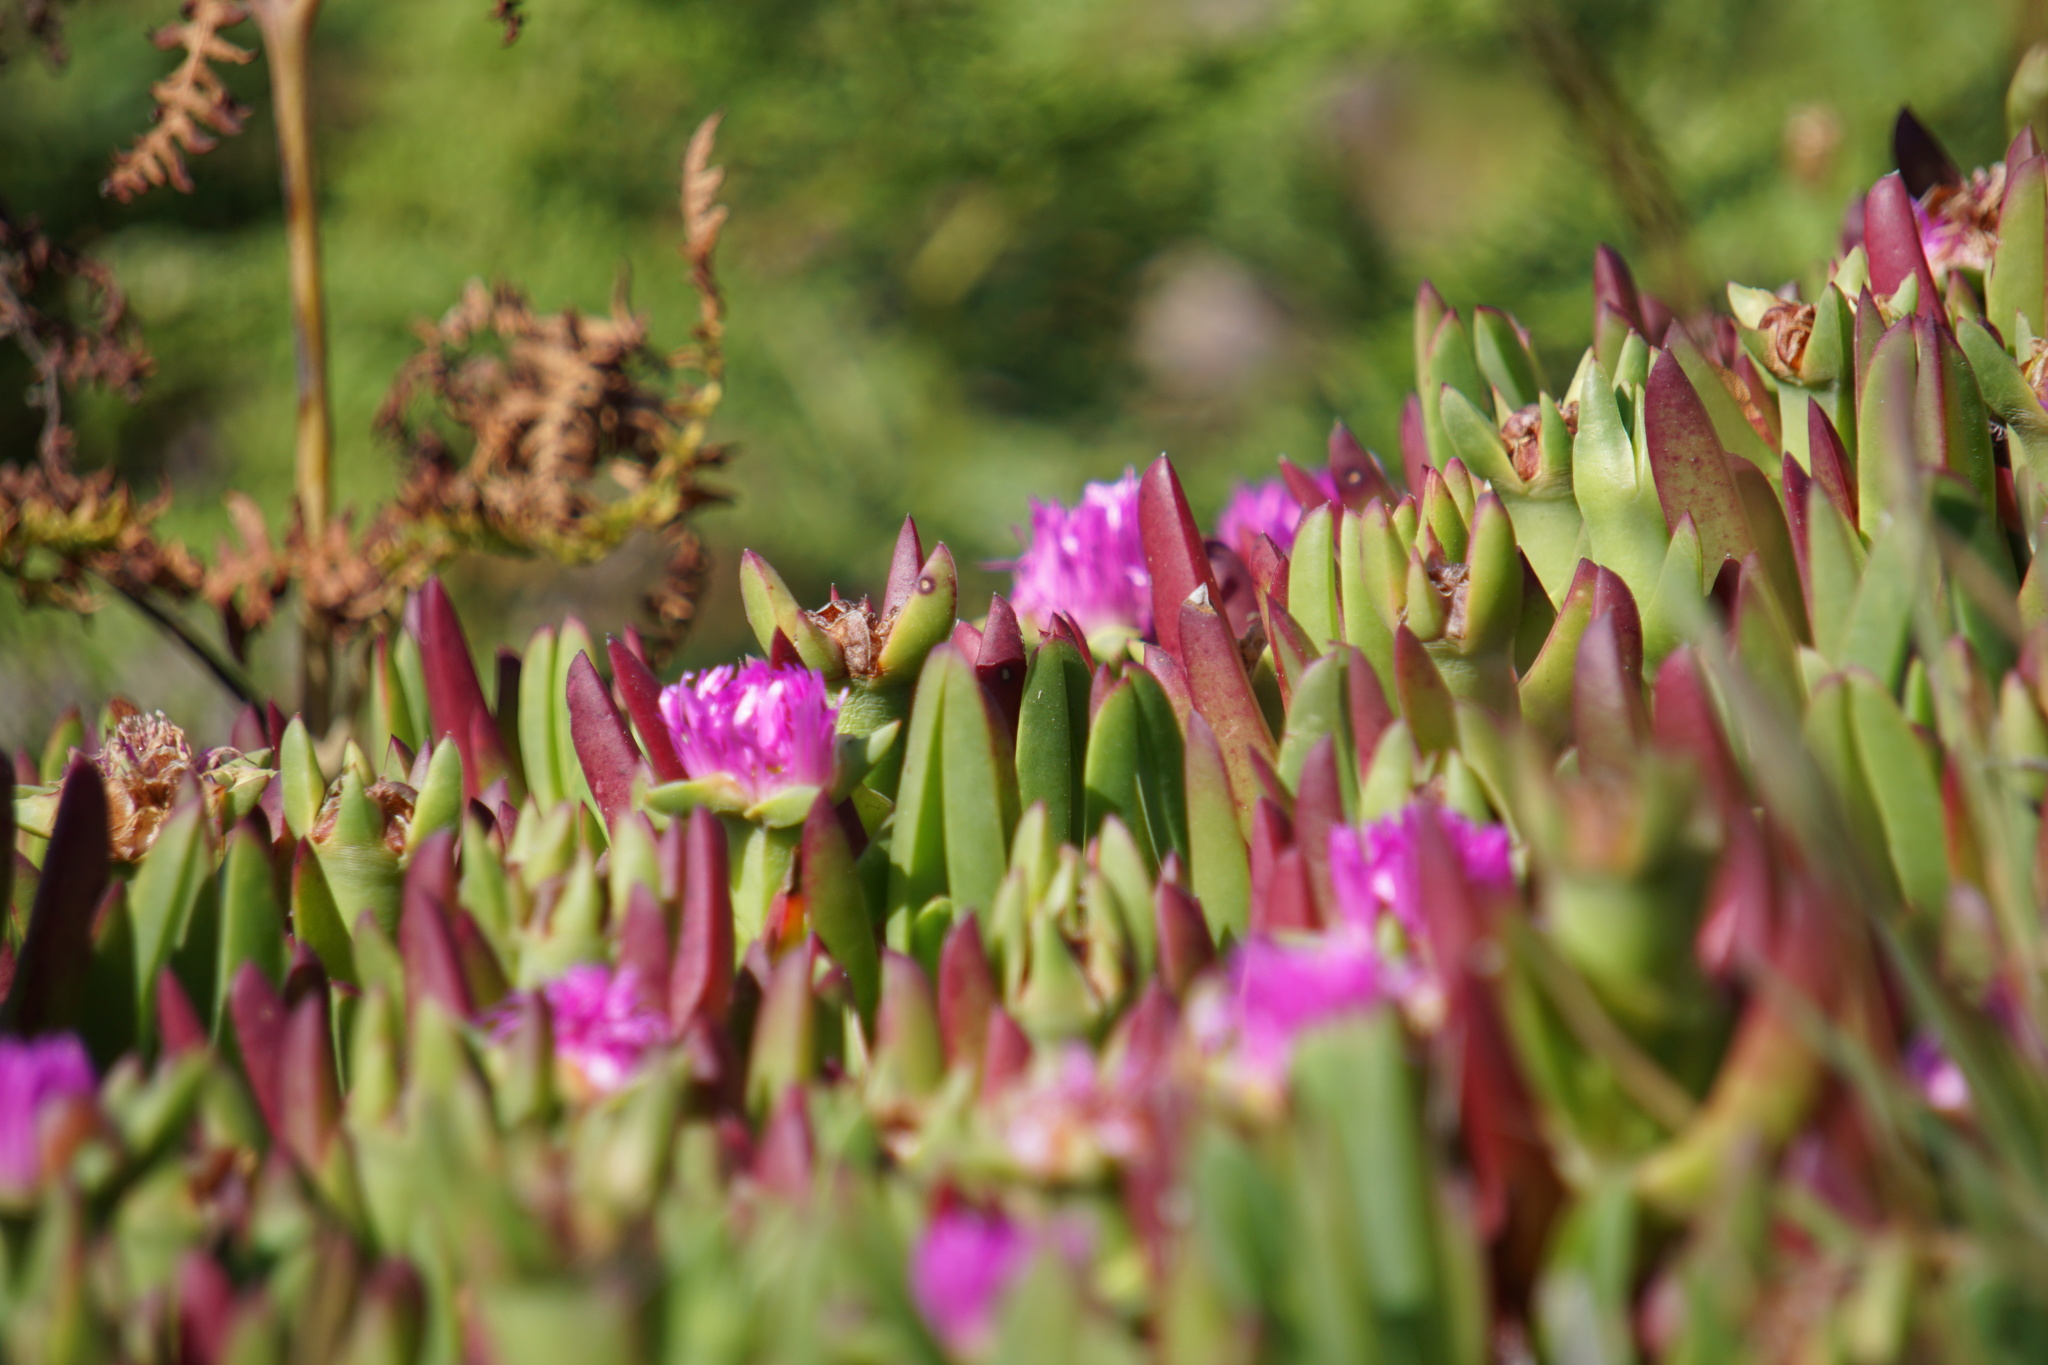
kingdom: Plantae
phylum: Tracheophyta
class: Magnoliopsida
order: Caryophyllales
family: Aizoaceae
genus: Carpobrotus
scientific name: Carpobrotus chilensis
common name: Sea fig
